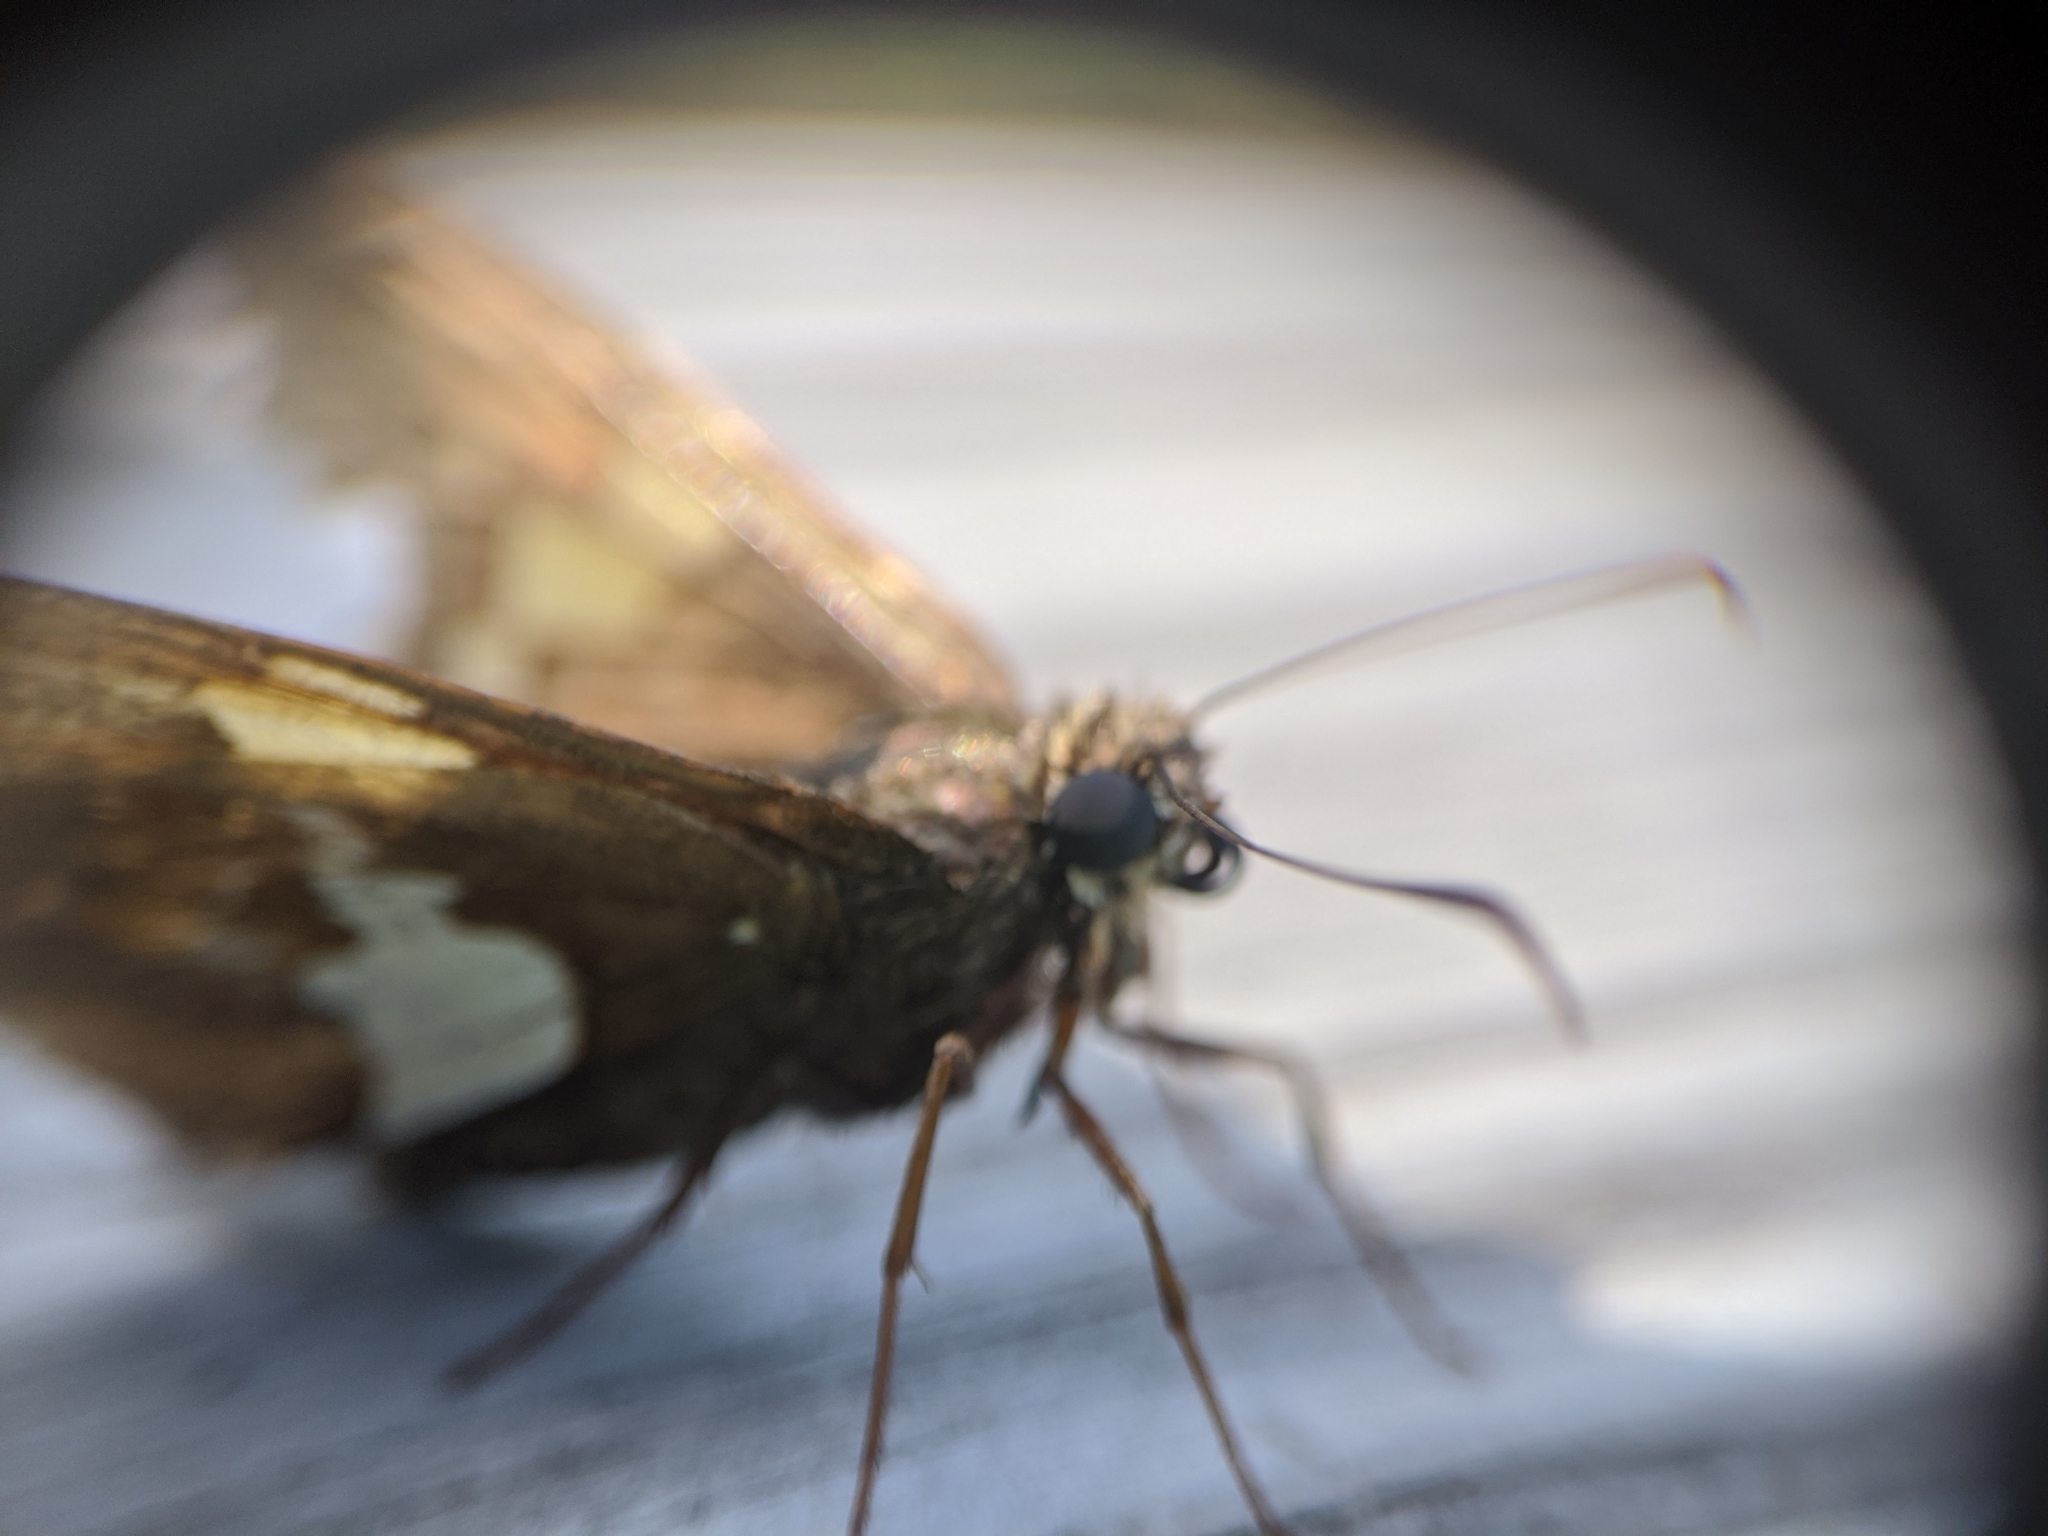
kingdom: Animalia
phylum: Arthropoda
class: Insecta
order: Lepidoptera
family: Hesperiidae
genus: Epargyreus
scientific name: Epargyreus clarus
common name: Silver-spotted skipper
